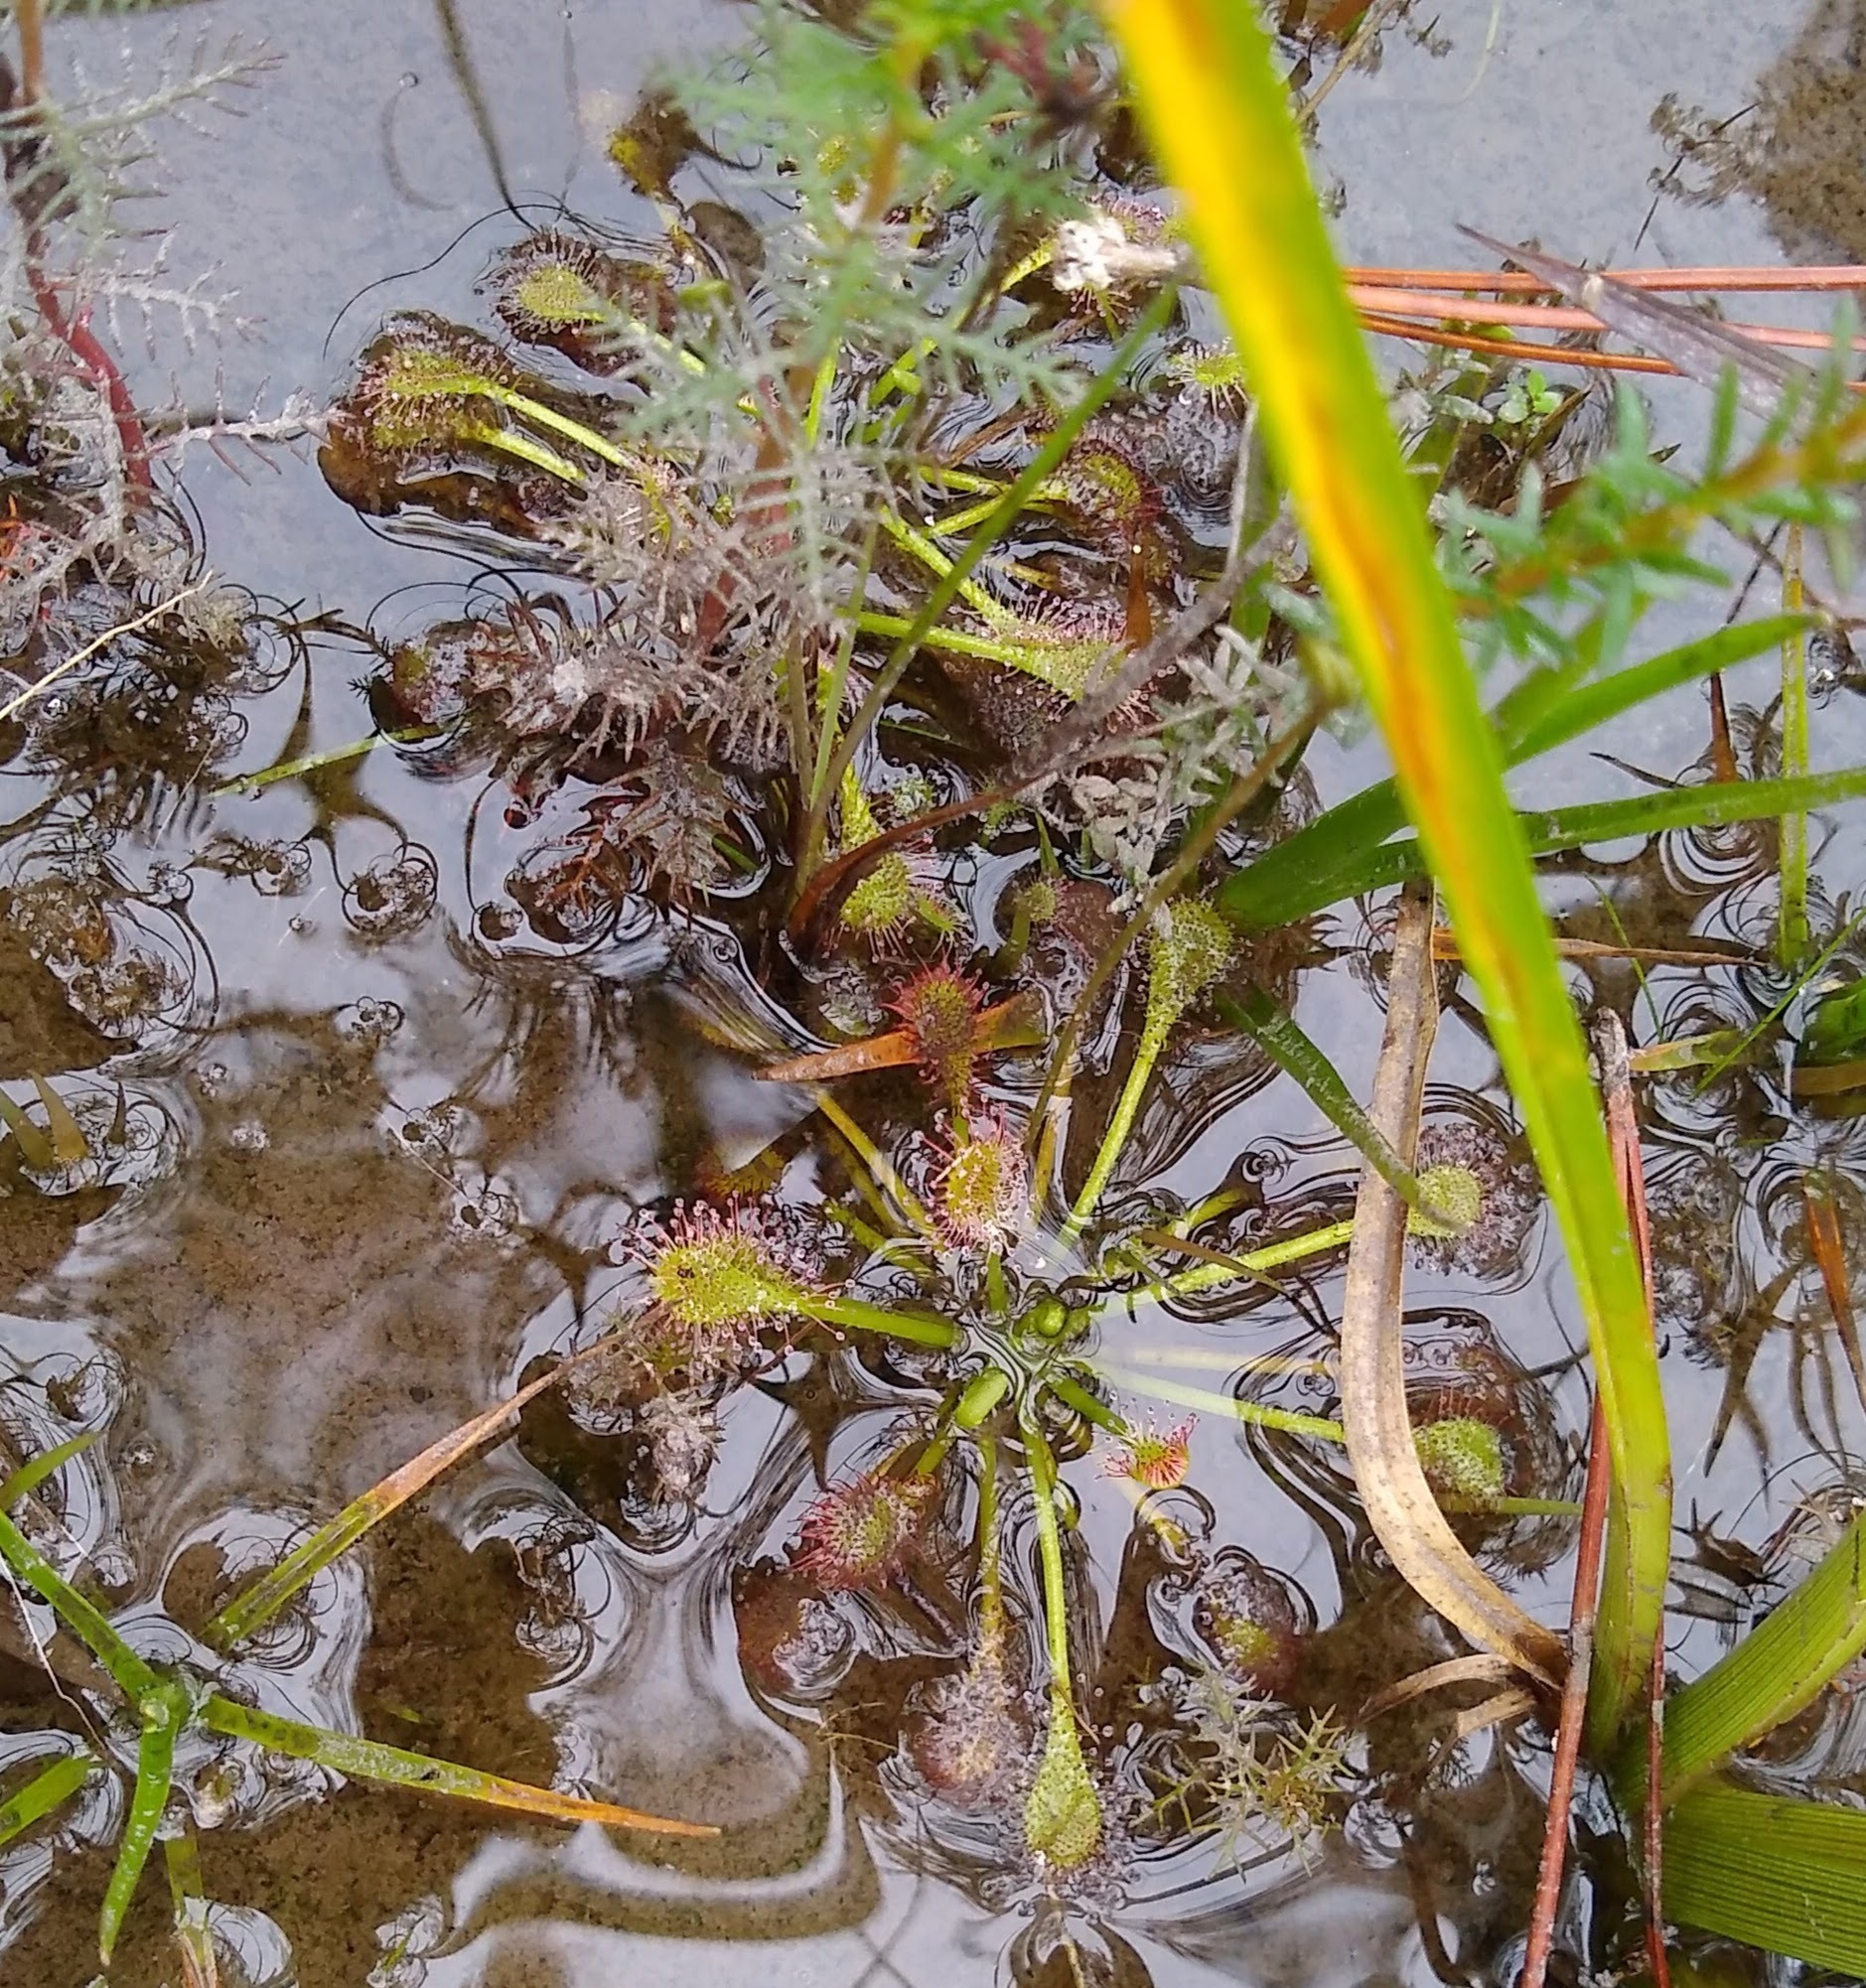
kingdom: Plantae
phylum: Tracheophyta
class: Magnoliopsida
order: Caryophyllales
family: Droseraceae
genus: Drosera
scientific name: Drosera intermedia
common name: Oblong-leaved sundew
